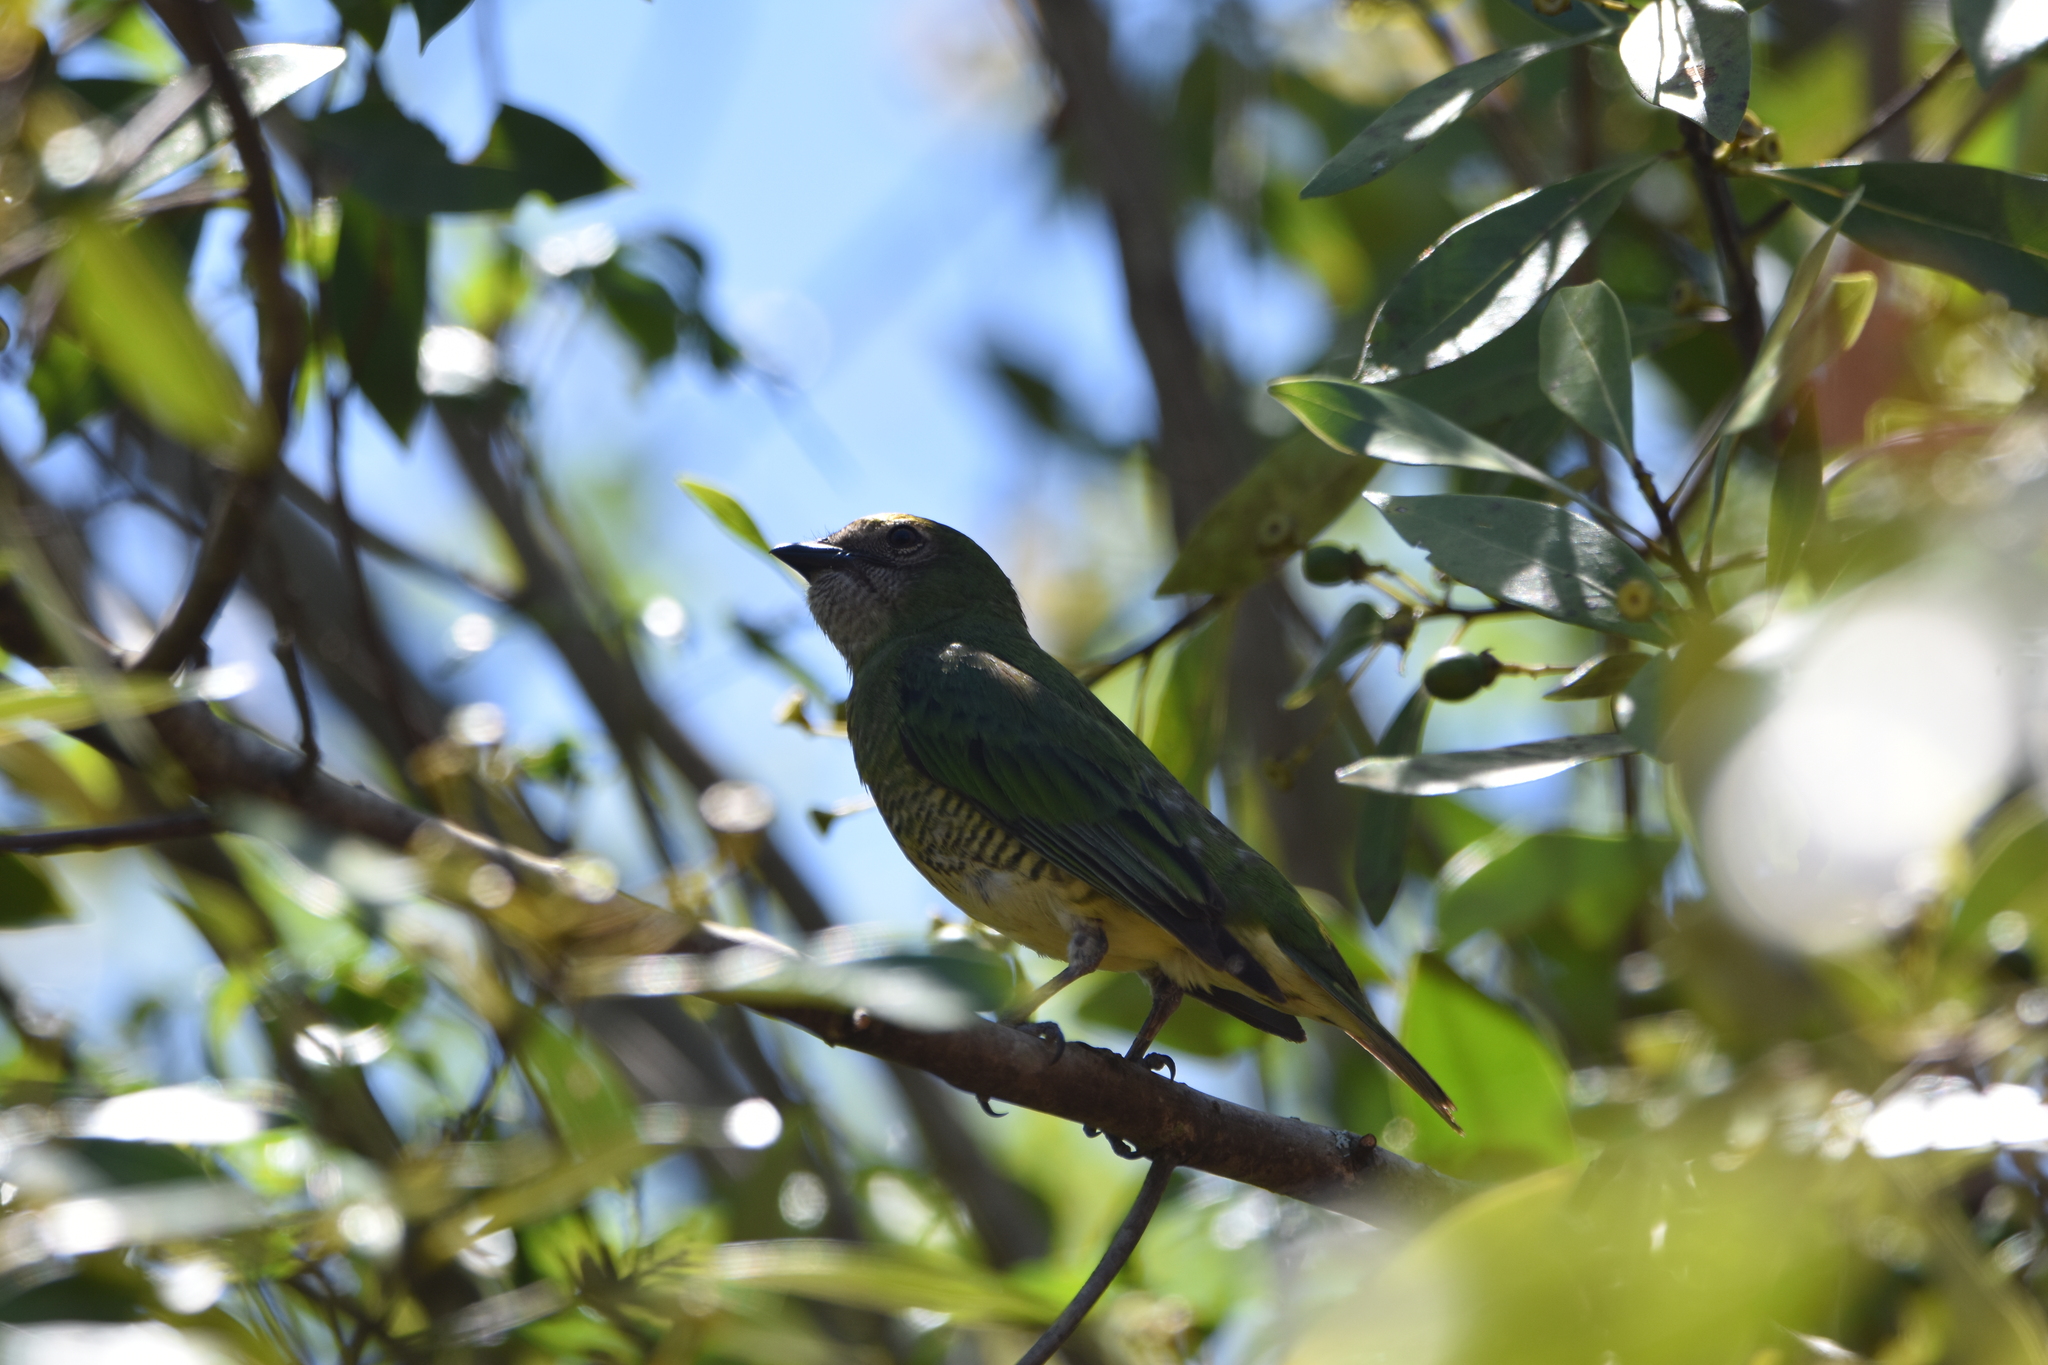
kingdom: Animalia
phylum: Chordata
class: Aves
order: Passeriformes
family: Thraupidae
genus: Tersina
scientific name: Tersina viridis
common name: Swallow tanager
